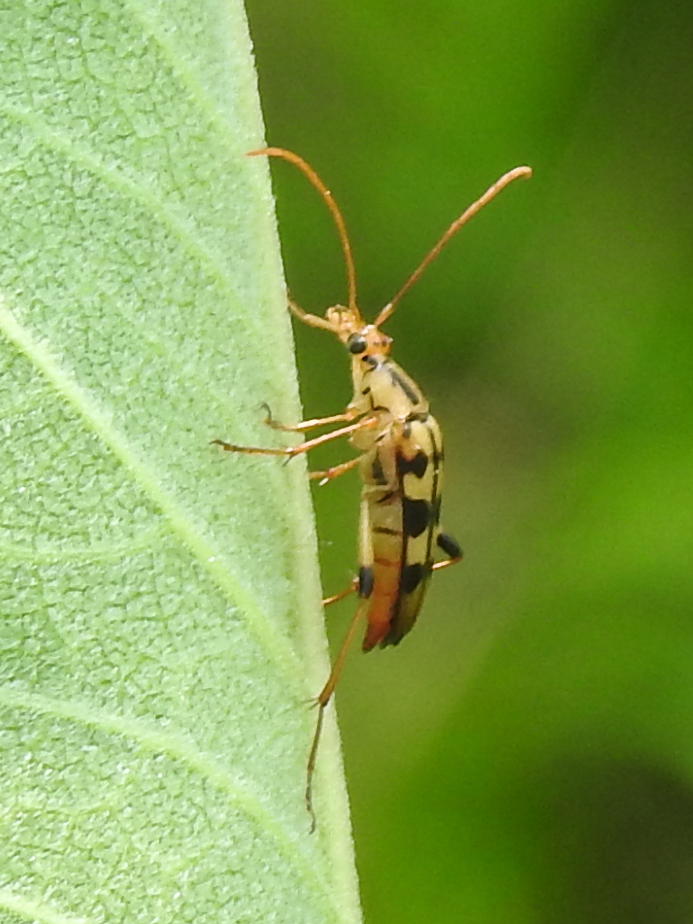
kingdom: Animalia
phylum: Arthropoda
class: Insecta
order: Coleoptera
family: Cerambycidae
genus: Strangalia
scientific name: Strangalia luteicornis
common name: Yellow-horned flower longhorn beetle
